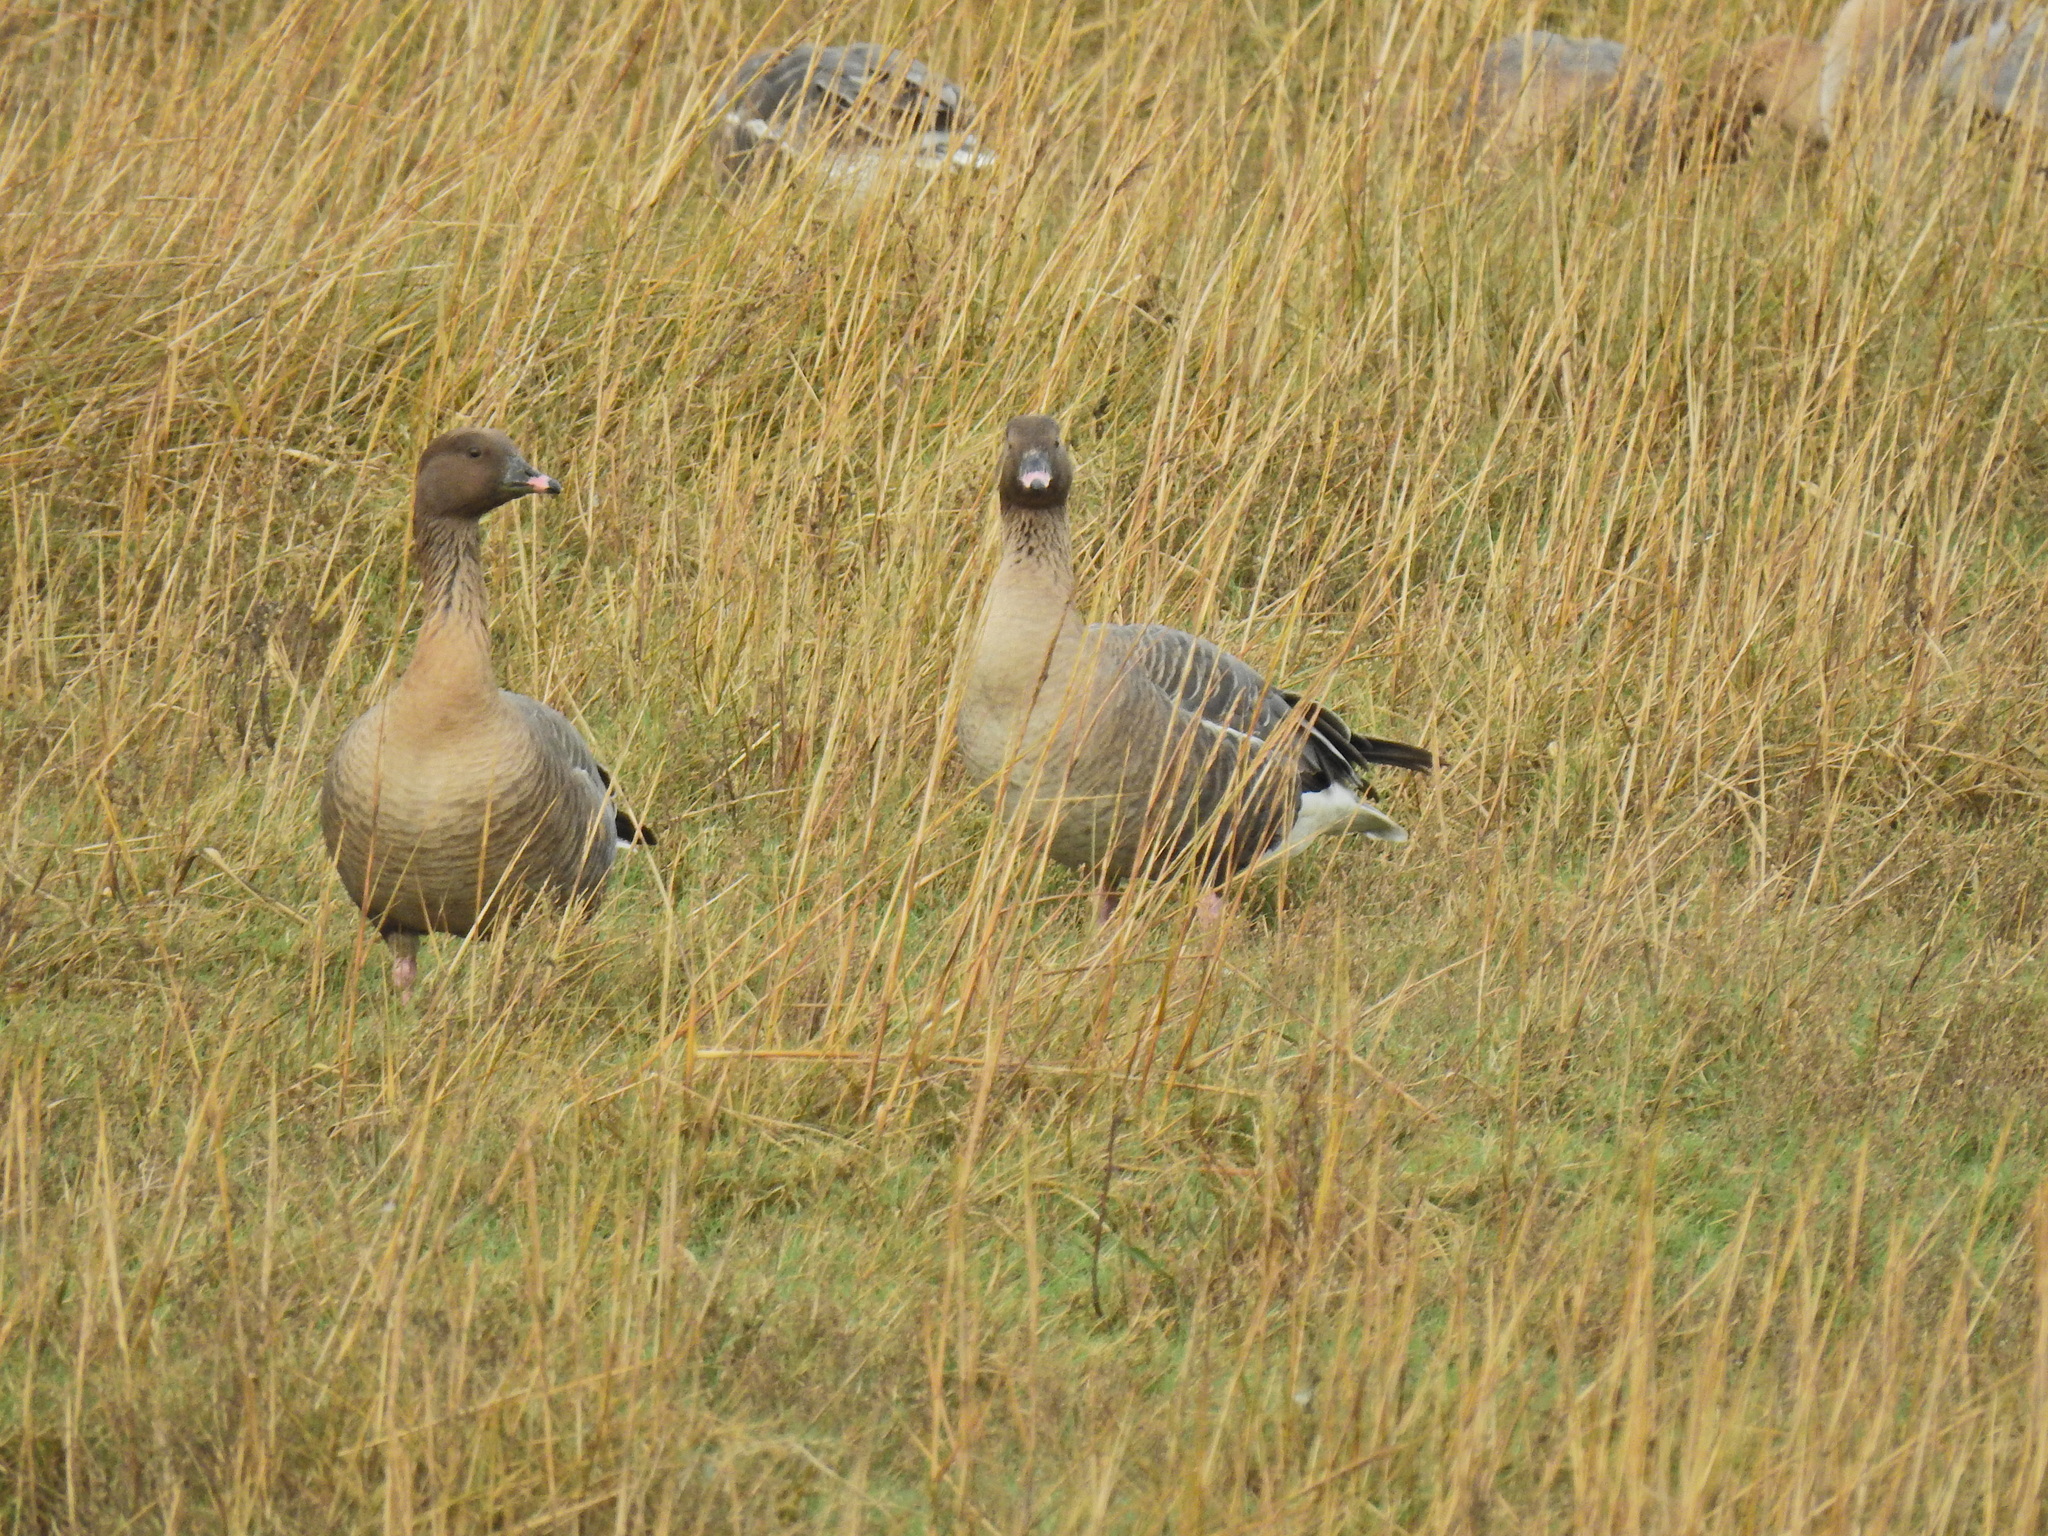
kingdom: Animalia
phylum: Chordata
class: Aves
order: Anseriformes
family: Anatidae
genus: Anser
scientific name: Anser brachyrhynchus
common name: Pink-footed goose
